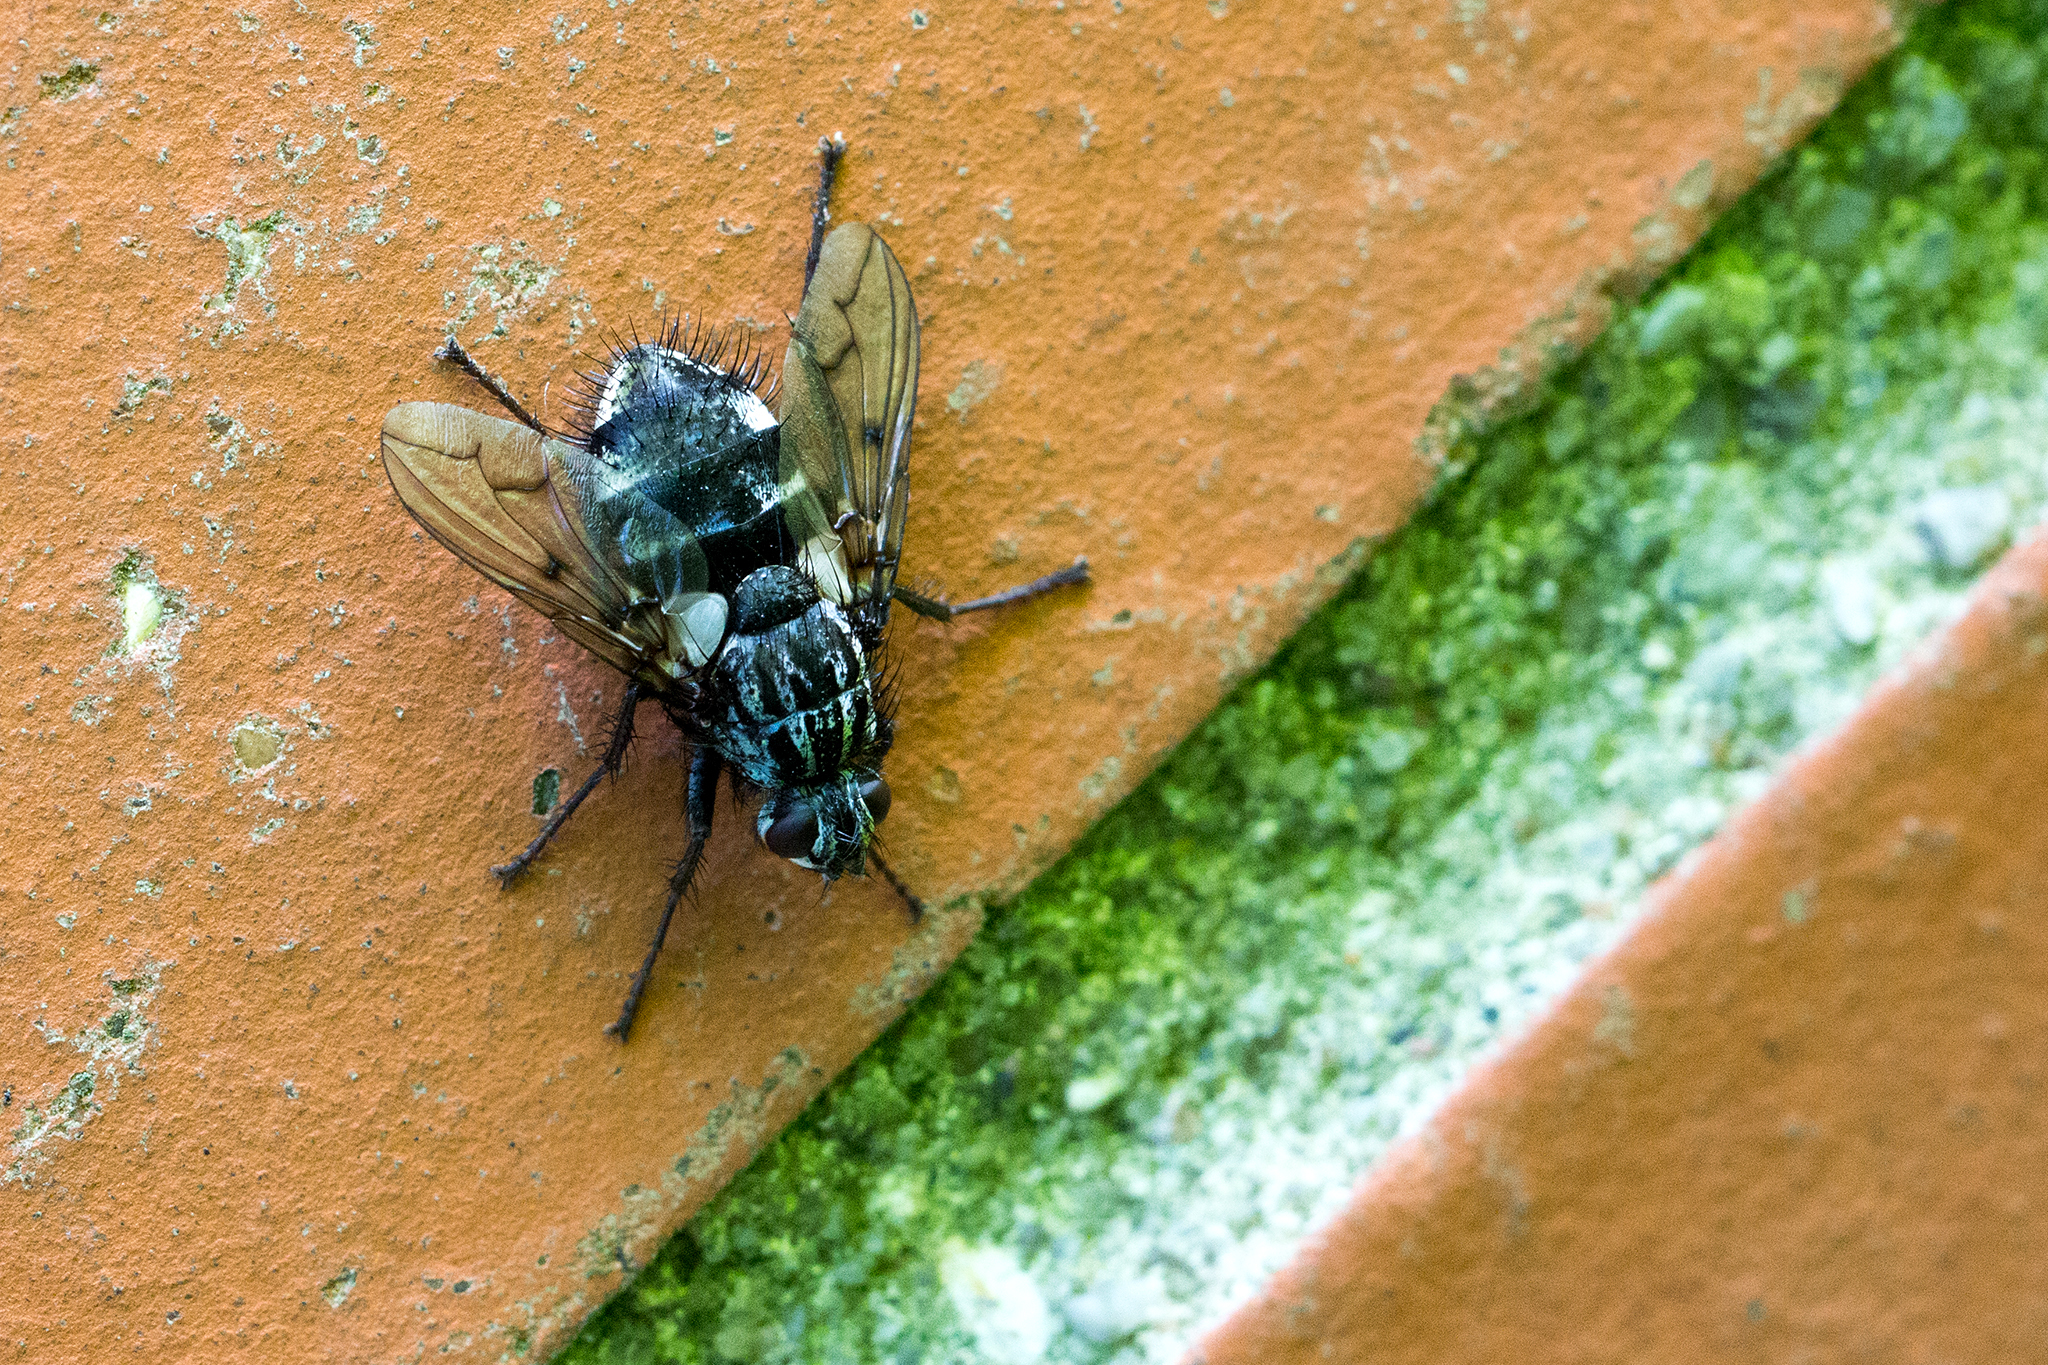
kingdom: Animalia
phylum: Arthropoda
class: Insecta
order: Diptera
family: Tachinidae
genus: Trixa
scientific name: Trixa conspersa
